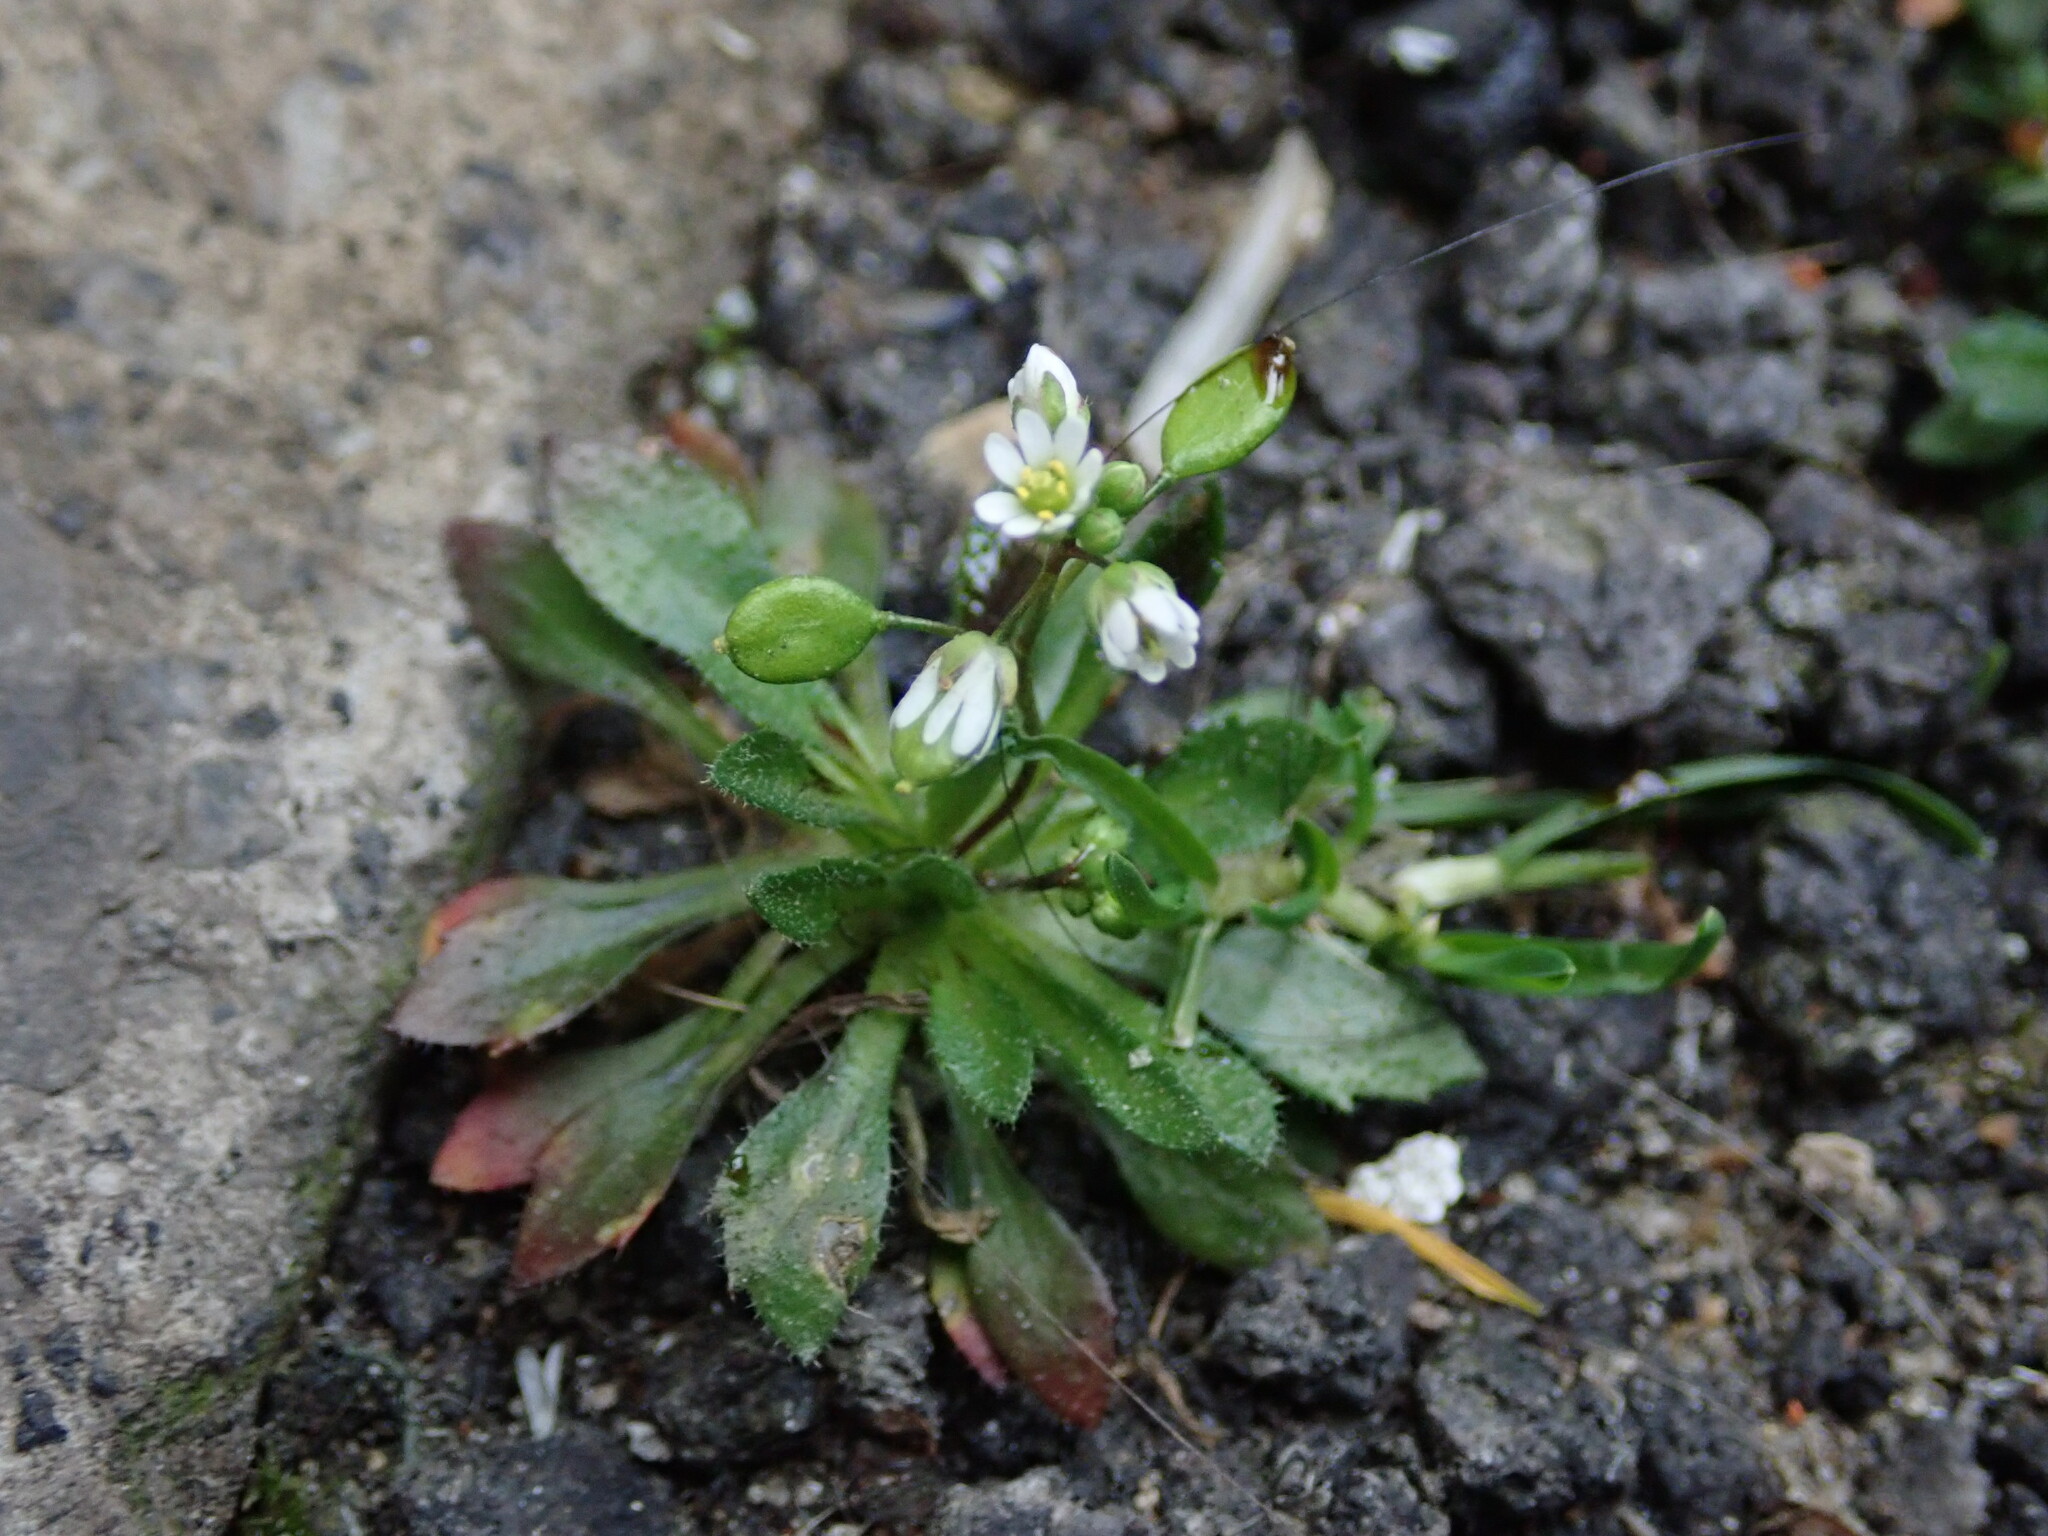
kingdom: Plantae
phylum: Tracheophyta
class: Magnoliopsida
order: Brassicales
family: Brassicaceae
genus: Draba
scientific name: Draba verna
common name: Spring draba
